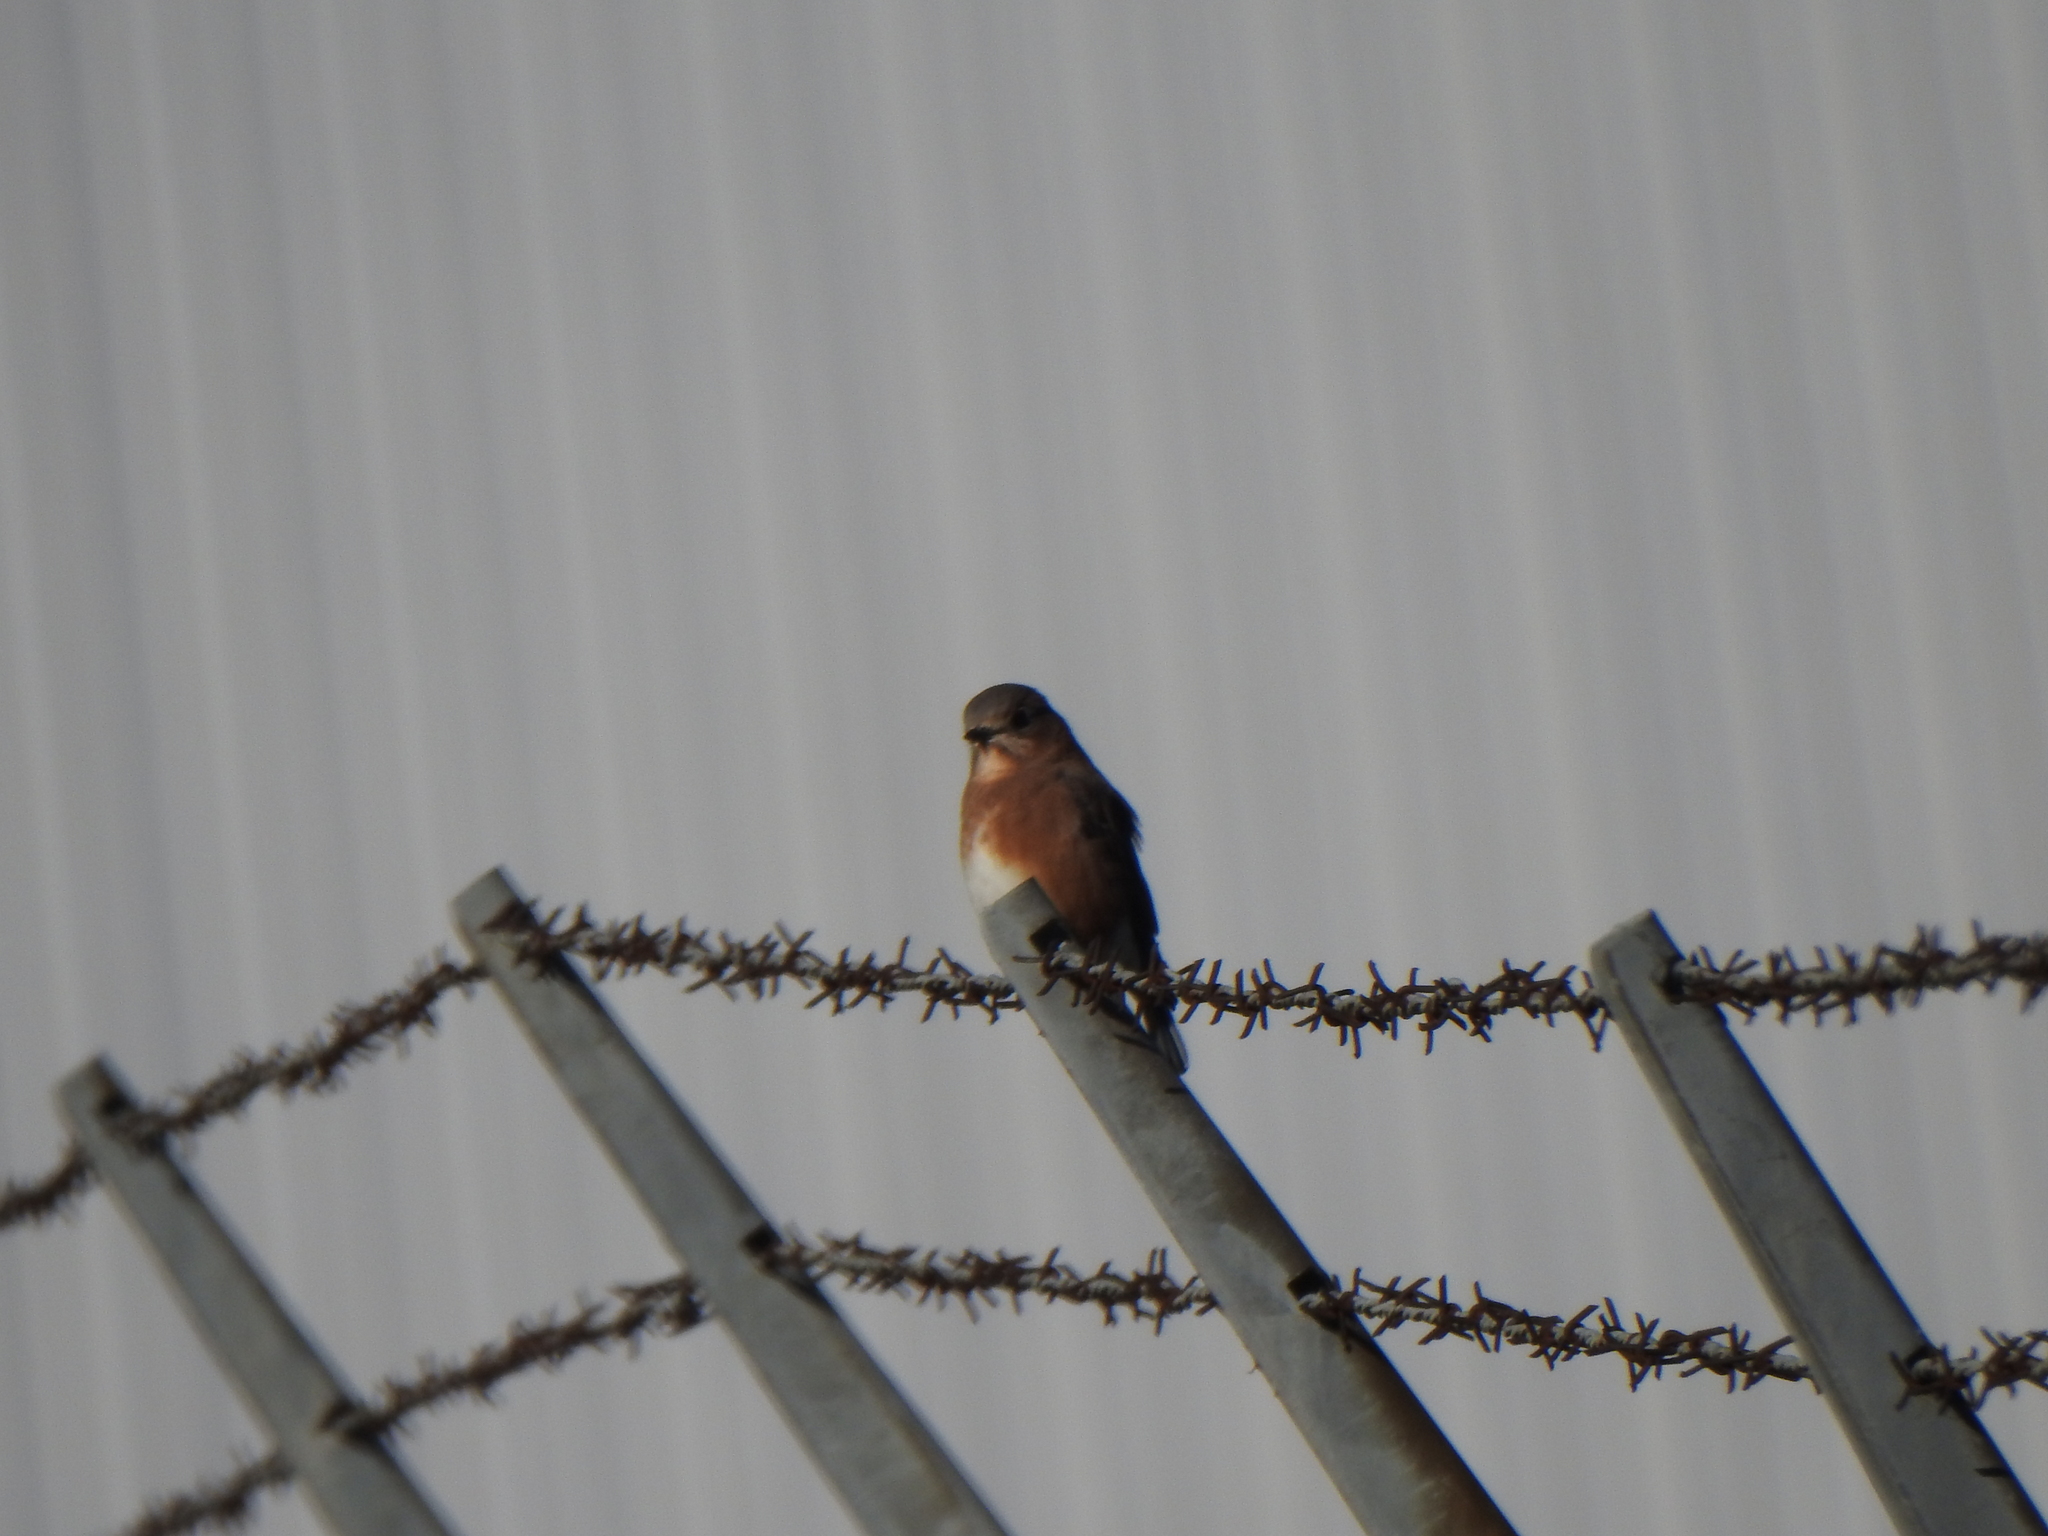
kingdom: Animalia
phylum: Chordata
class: Aves
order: Passeriformes
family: Turdidae
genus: Sialia
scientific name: Sialia sialis
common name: Eastern bluebird
